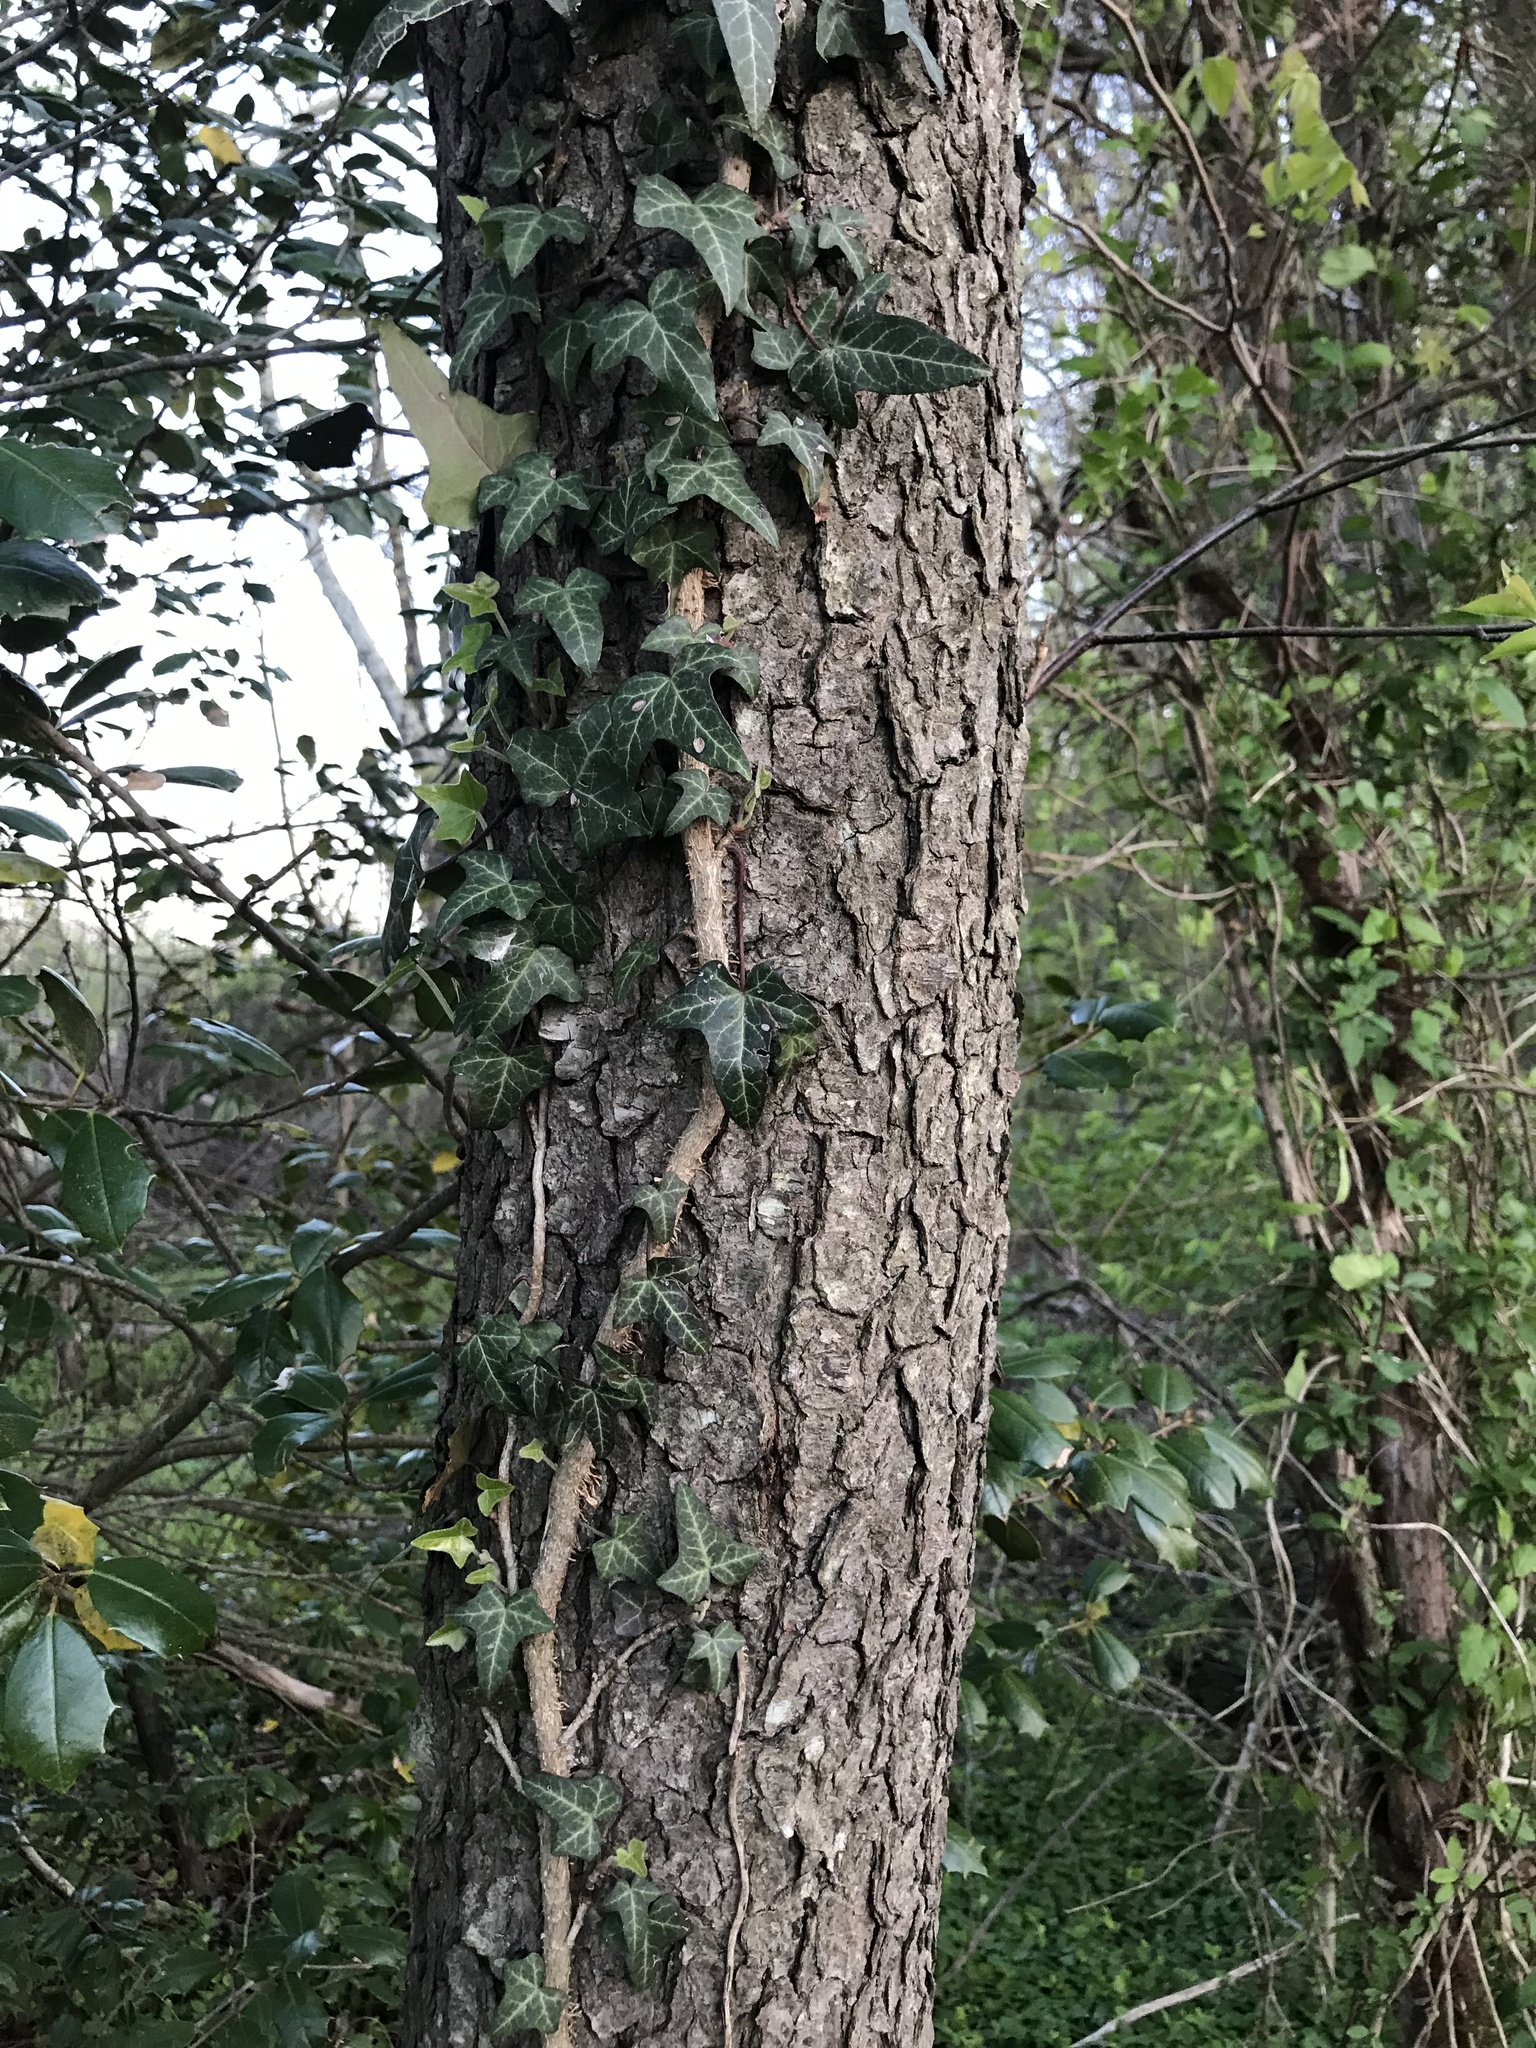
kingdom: Plantae
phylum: Tracheophyta
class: Magnoliopsida
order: Apiales
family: Araliaceae
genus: Hedera
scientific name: Hedera helix
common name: Ivy
